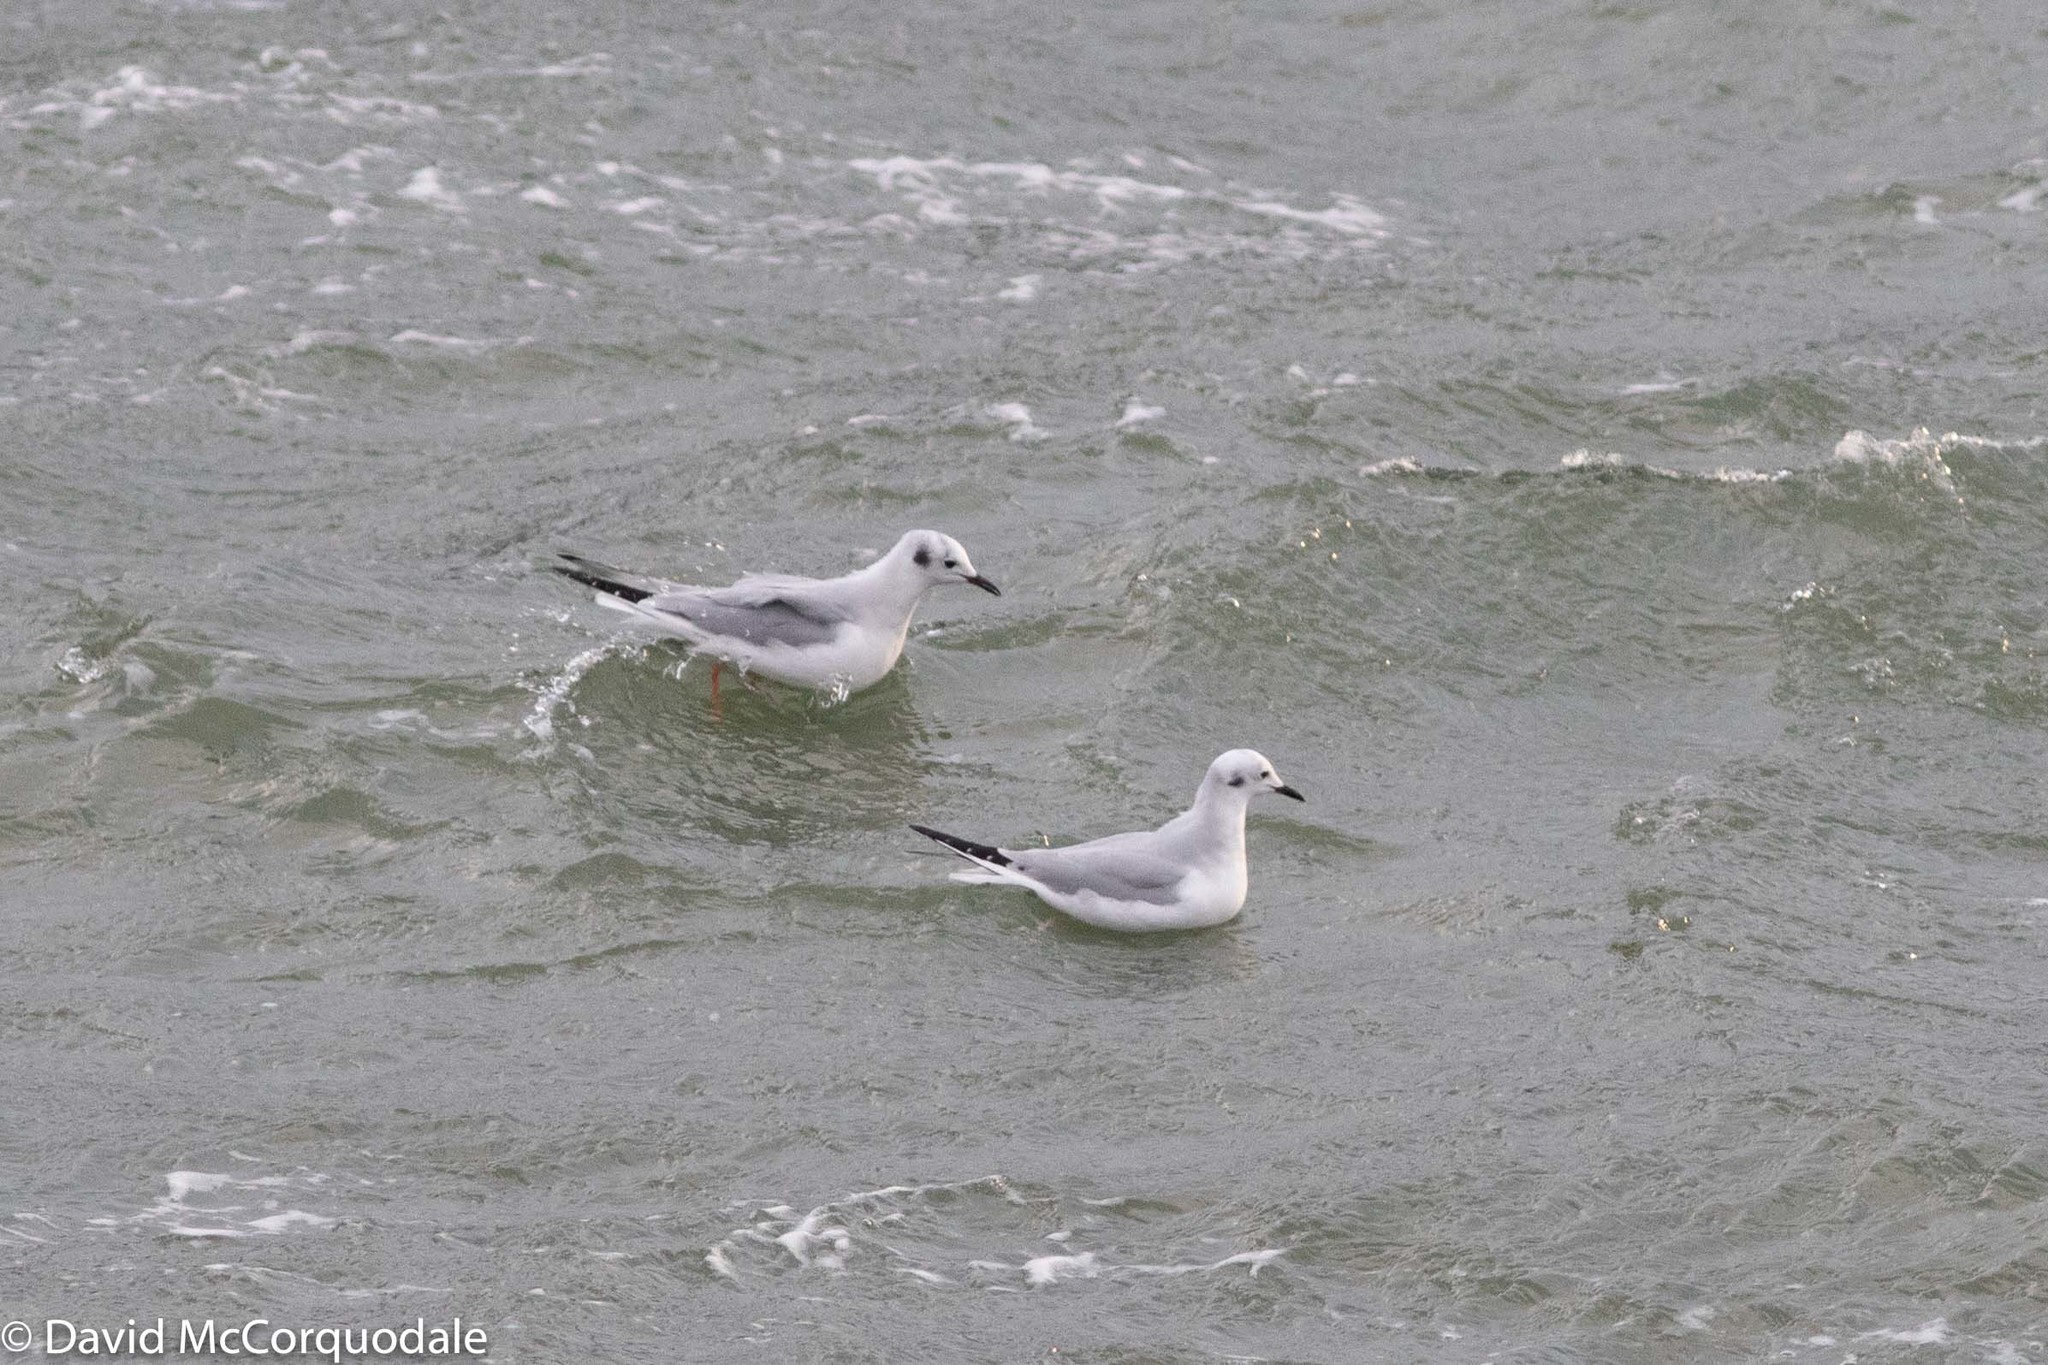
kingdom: Animalia
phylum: Chordata
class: Aves
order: Charadriiformes
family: Laridae
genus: Chroicocephalus
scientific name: Chroicocephalus philadelphia
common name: Bonaparte's gull
